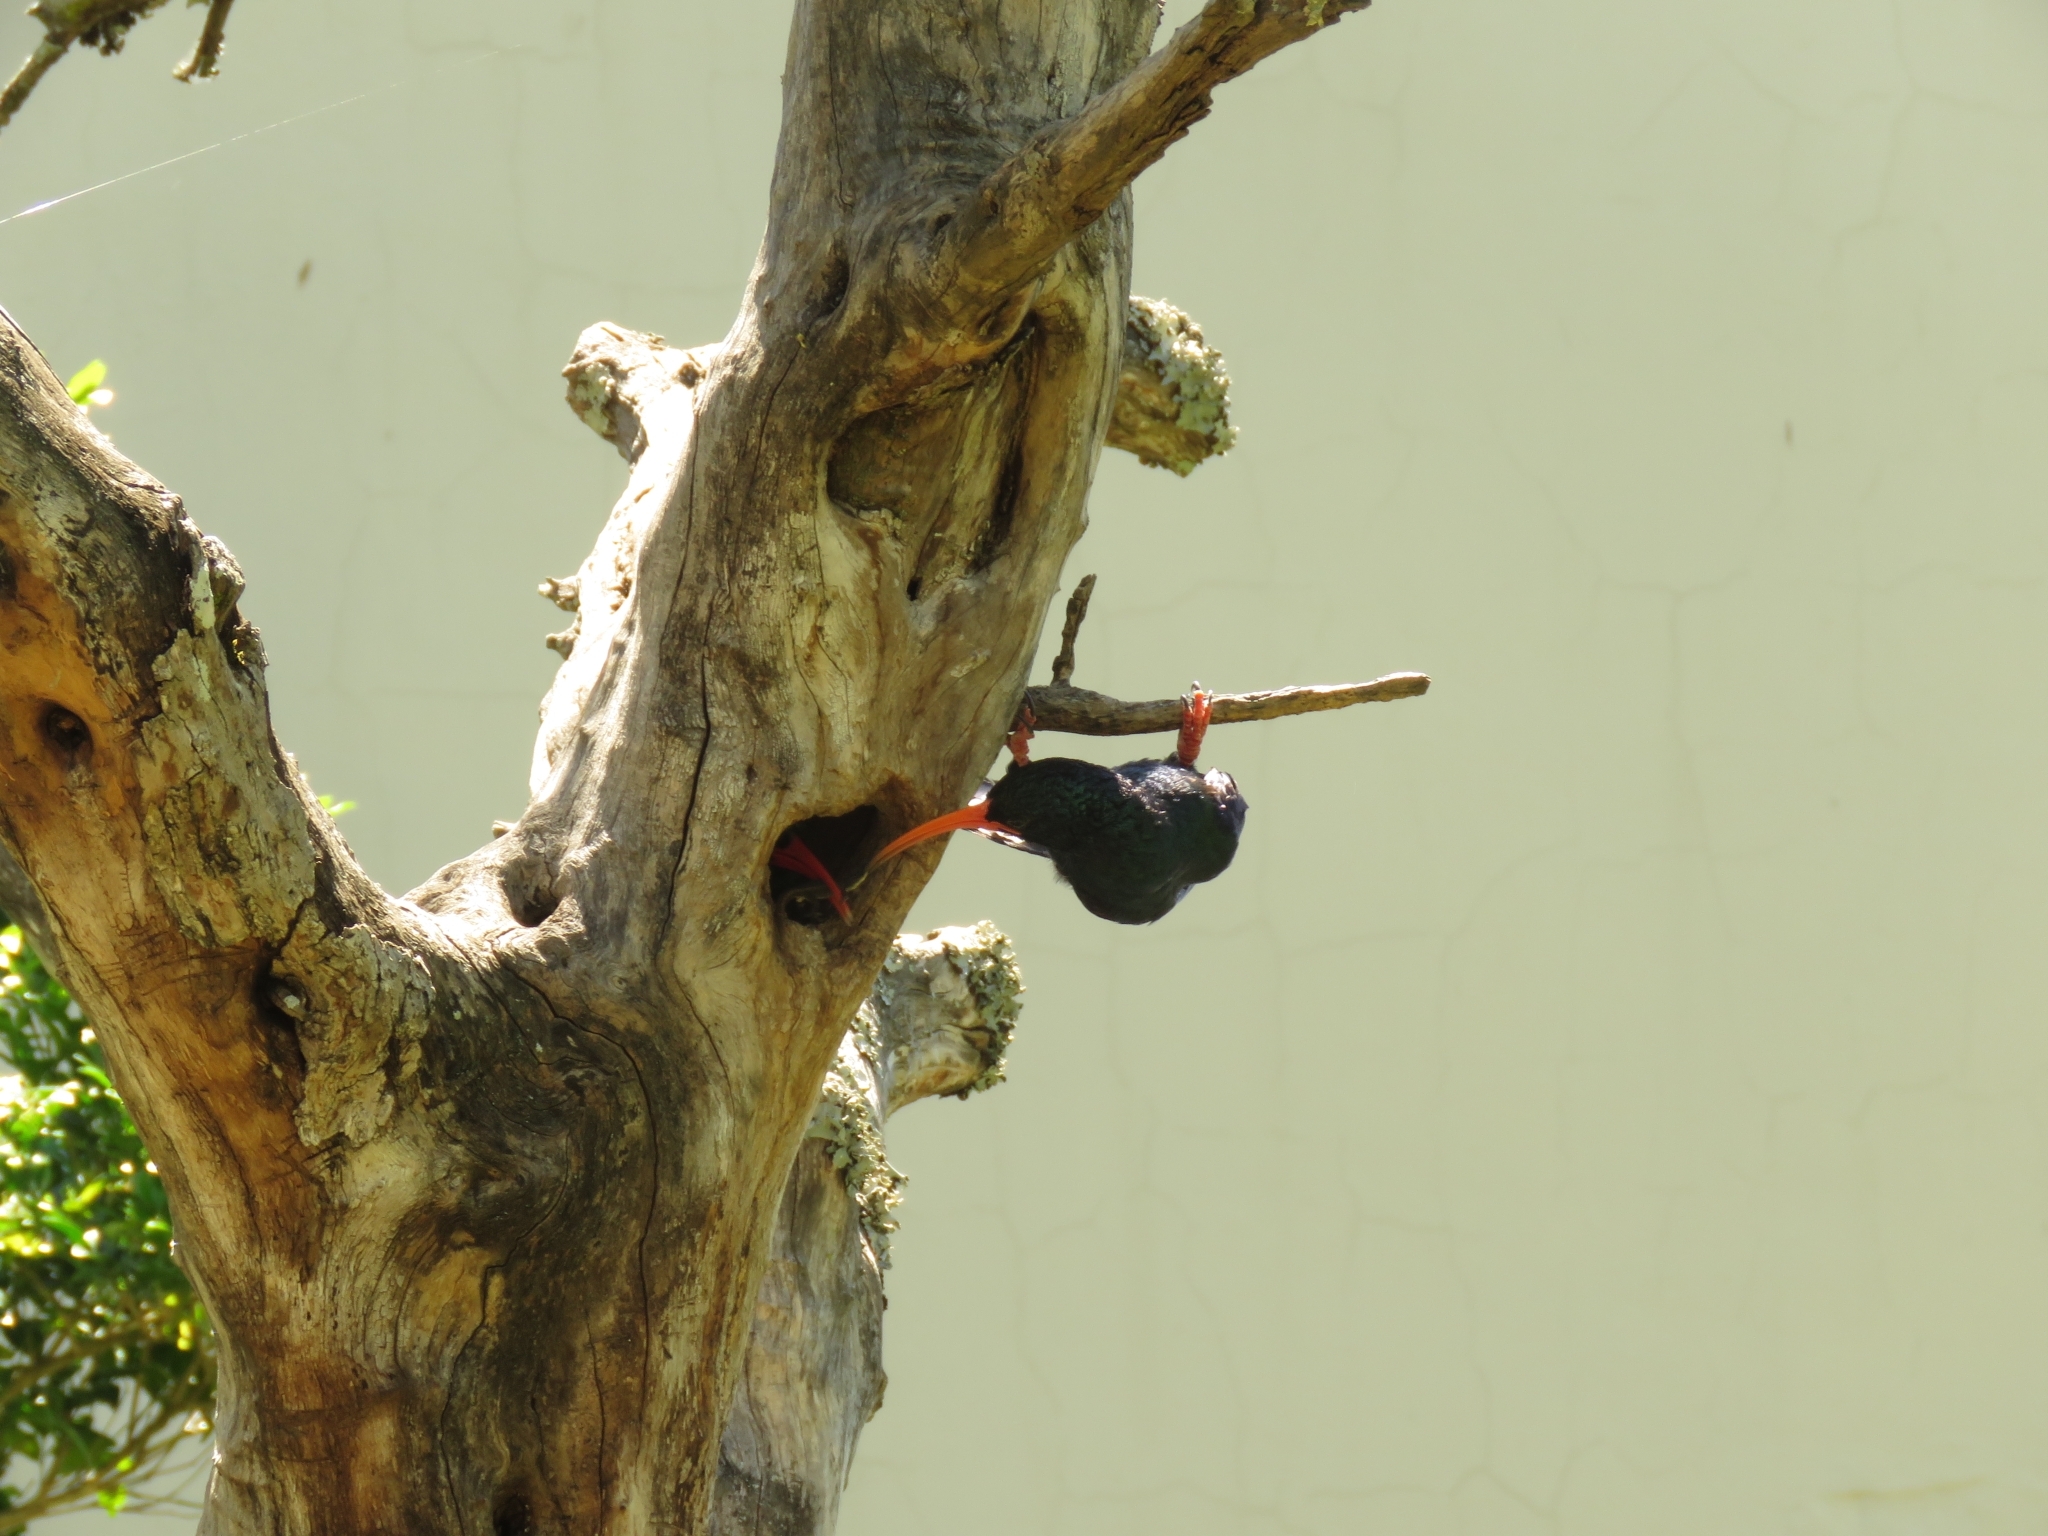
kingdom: Animalia
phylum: Chordata
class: Aves
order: Bucerotiformes
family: Phoeniculidae
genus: Phoeniculus
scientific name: Phoeniculus purpureus
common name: Green woodhoopoe
